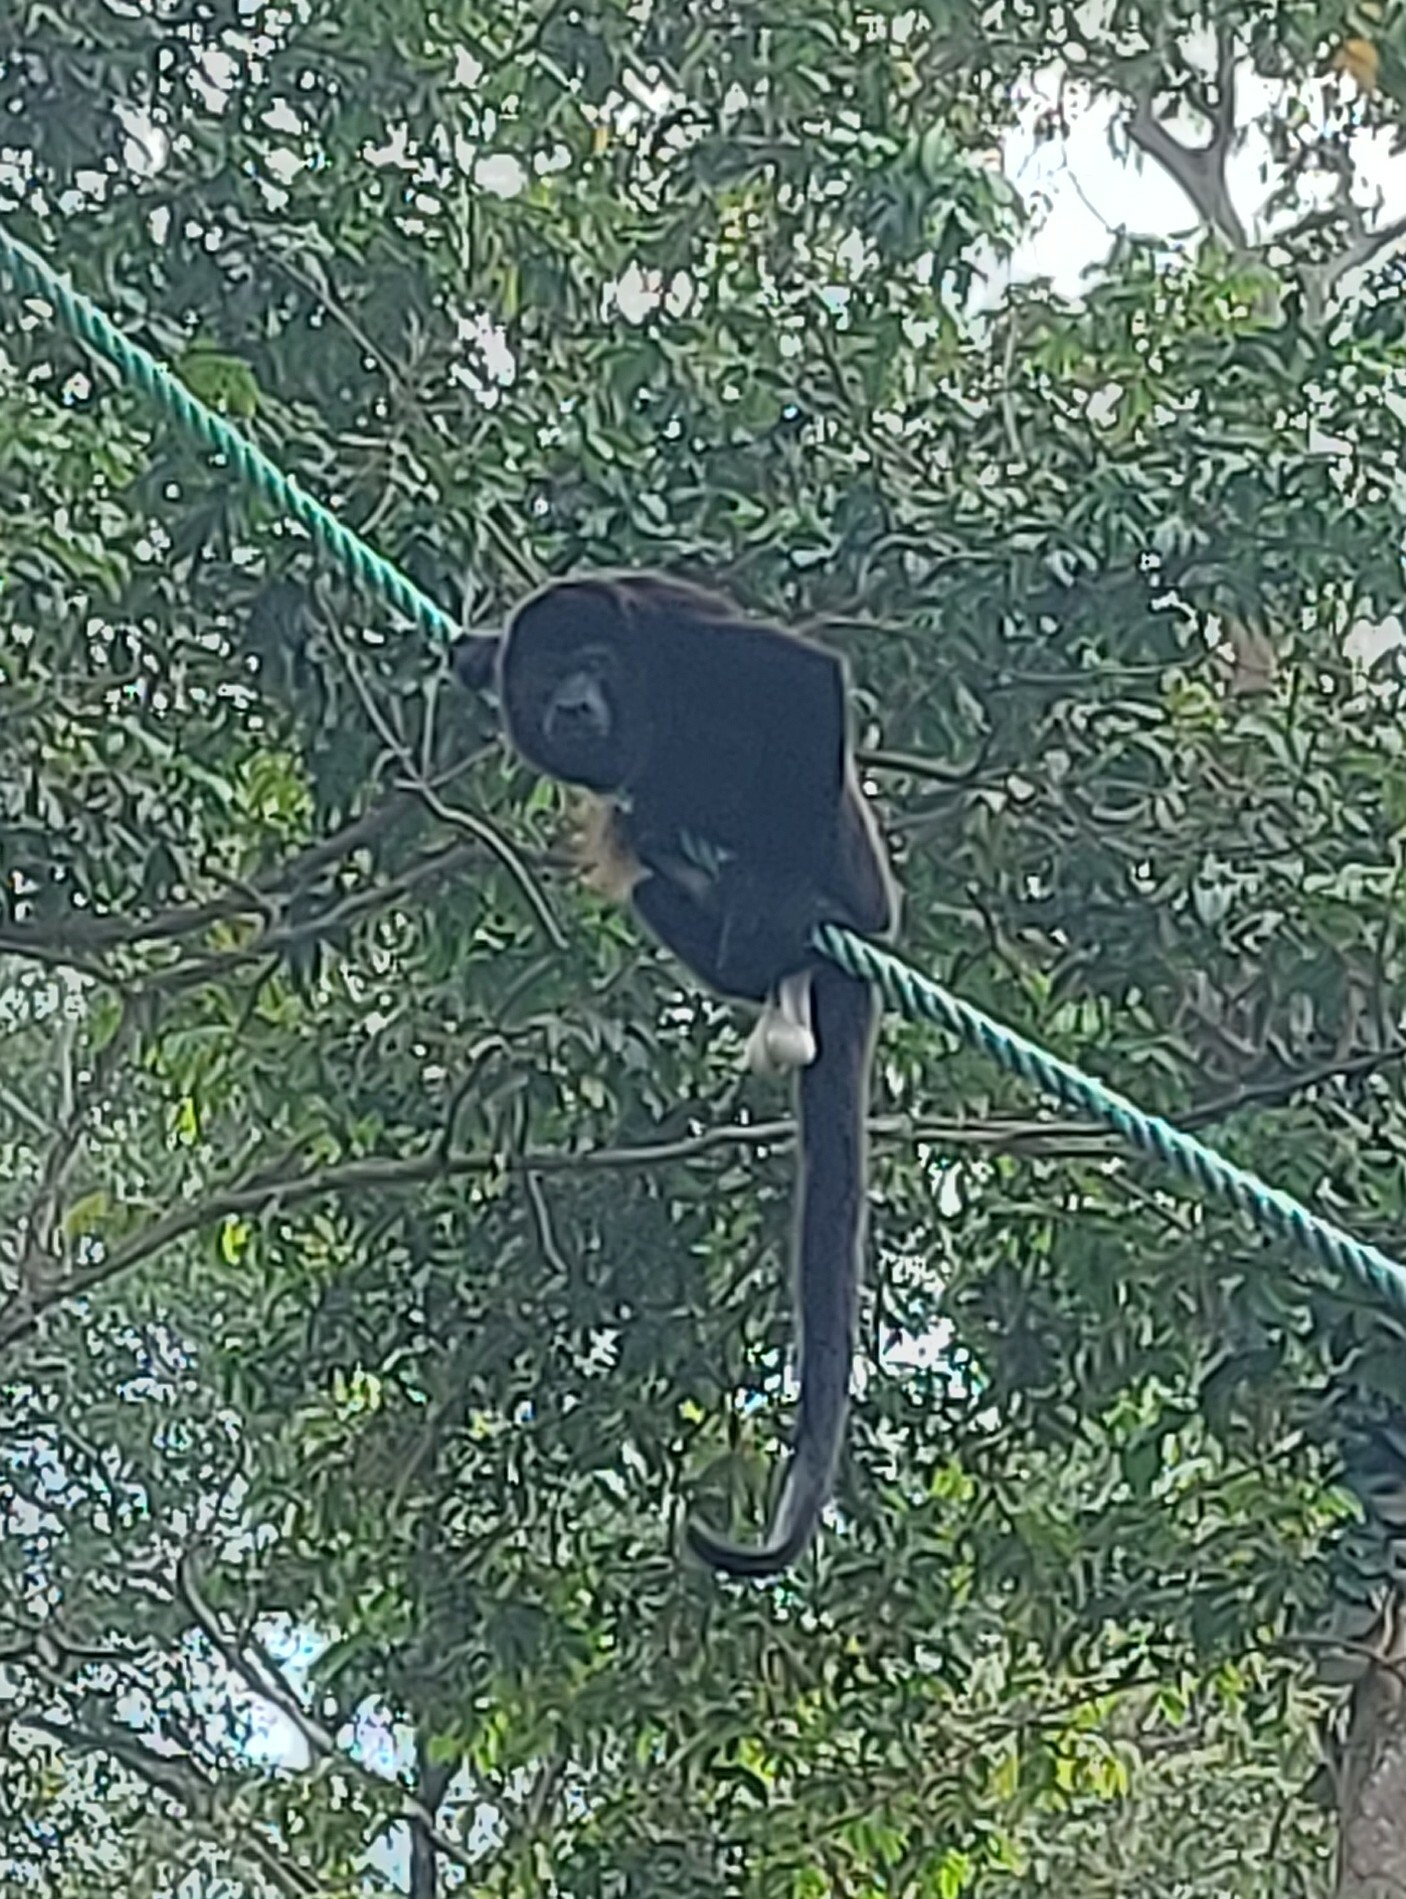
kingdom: Animalia
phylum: Chordata
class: Mammalia
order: Primates
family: Atelidae
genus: Alouatta
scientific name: Alouatta palliata
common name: Mantled howler
